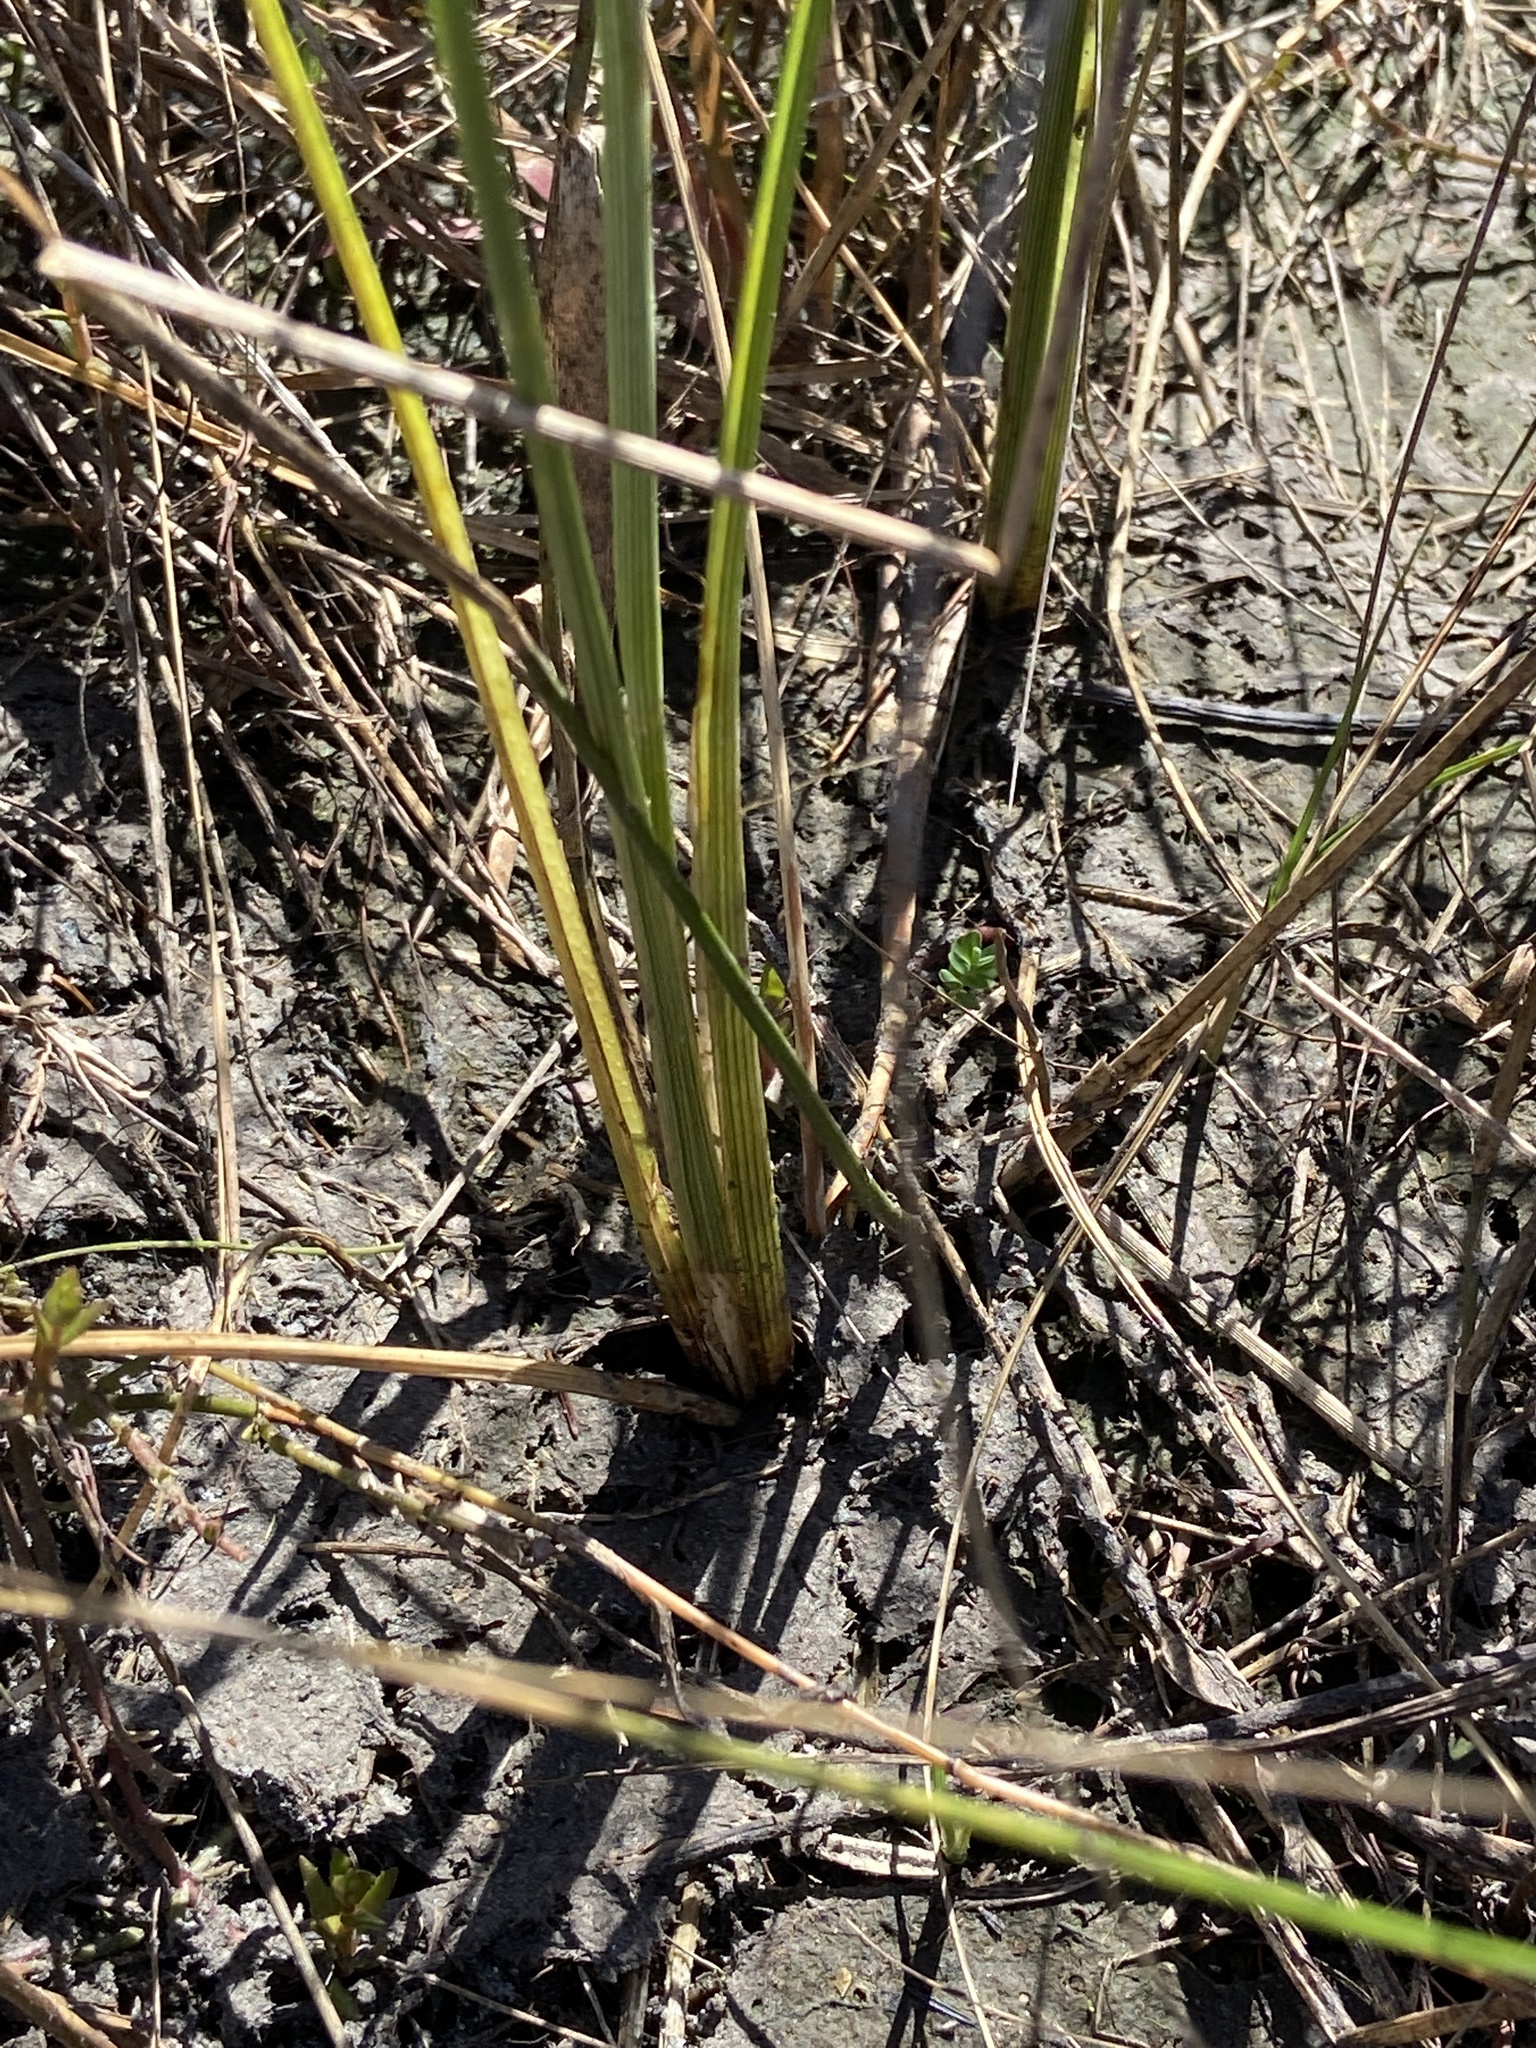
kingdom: Plantae
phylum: Tracheophyta
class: Liliopsida
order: Poales
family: Cyperaceae
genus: Rhynchospora
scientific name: Rhynchospora tracyi
